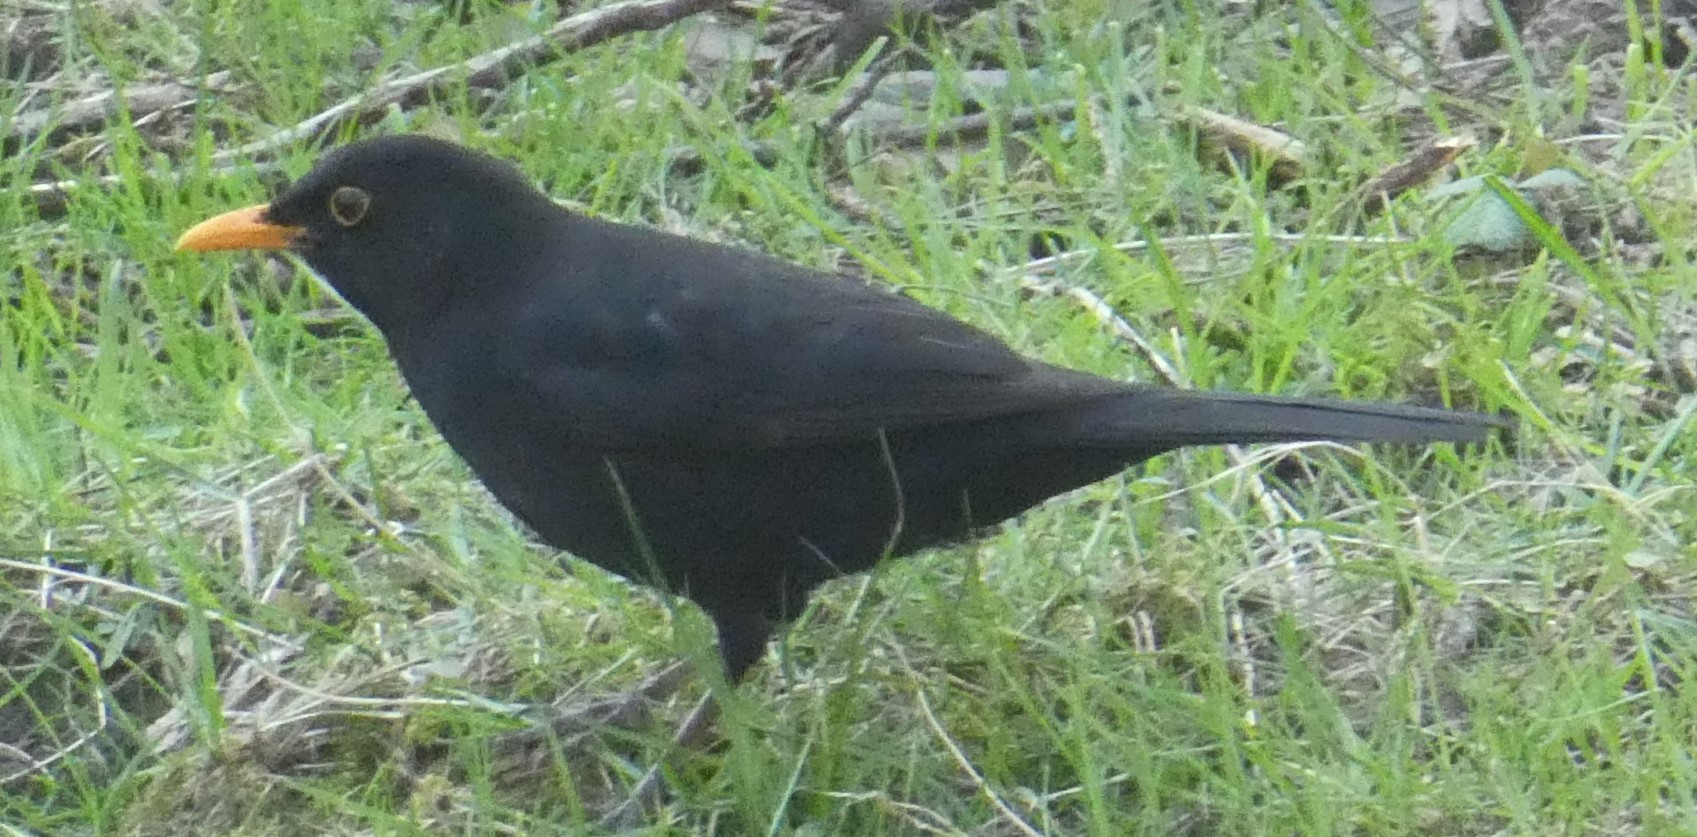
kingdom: Animalia
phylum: Chordata
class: Aves
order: Passeriformes
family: Turdidae
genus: Turdus
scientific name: Turdus merula
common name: Common blackbird
